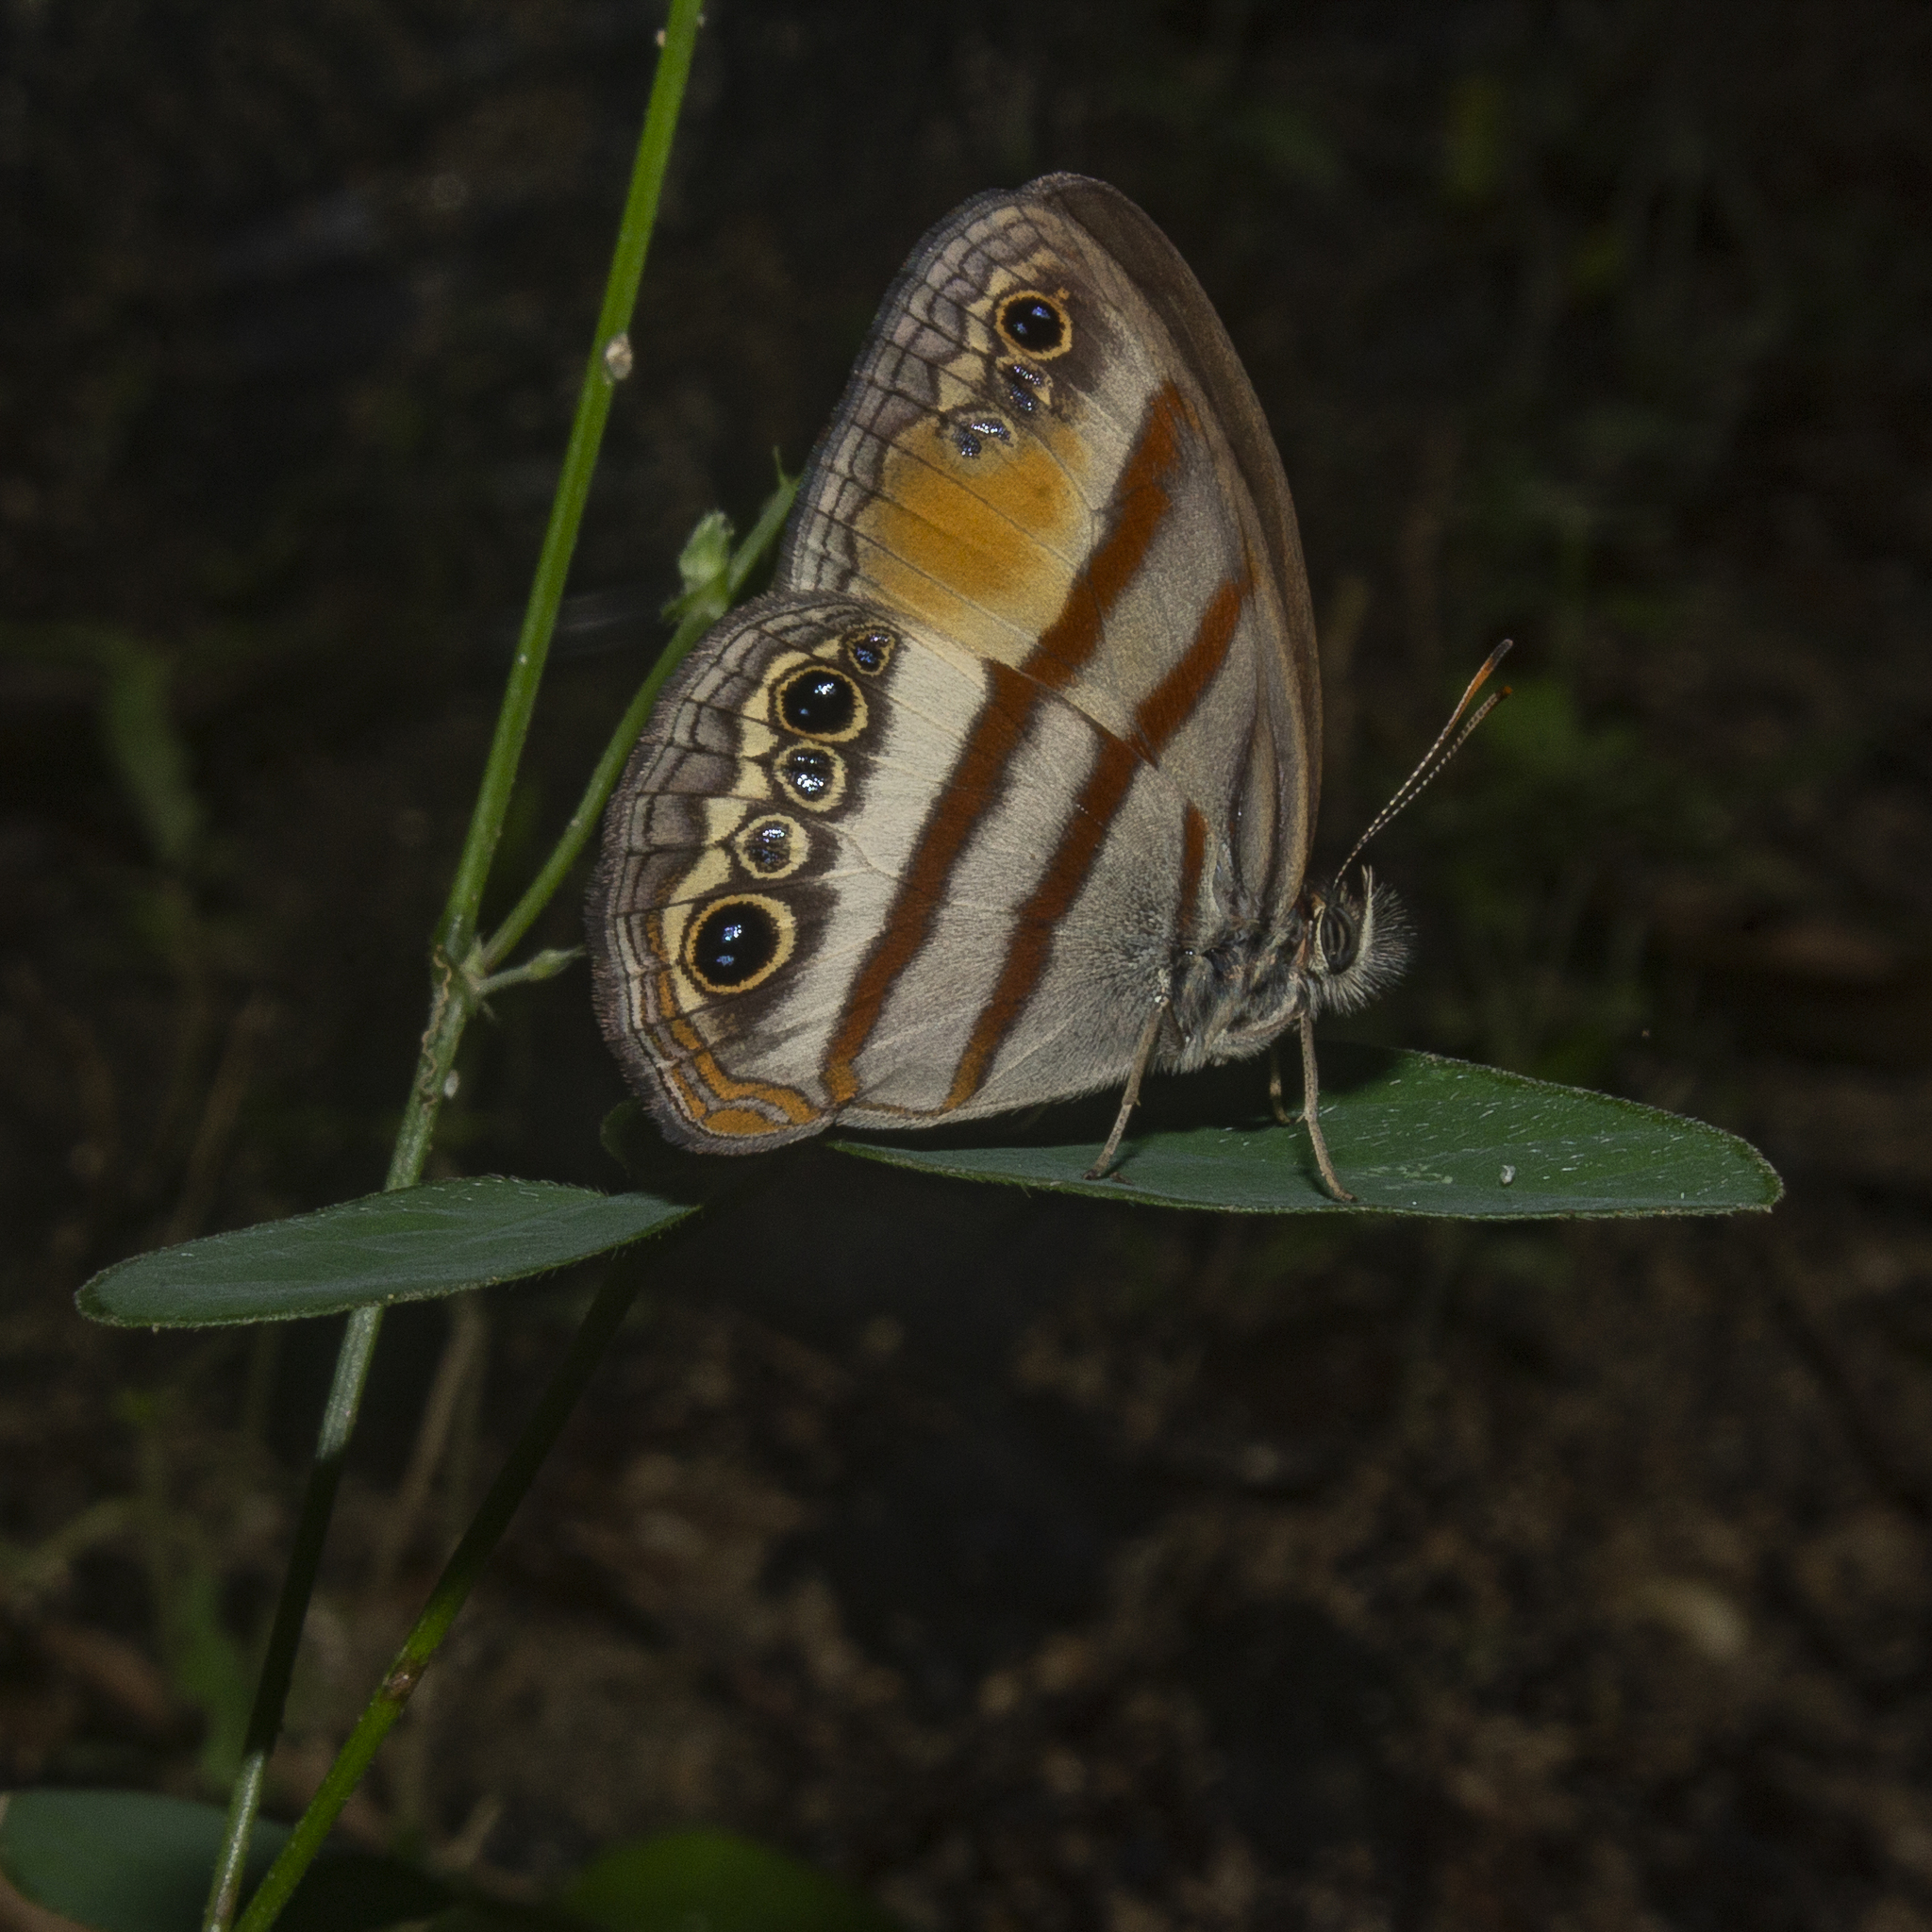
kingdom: Animalia
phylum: Arthropoda
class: Insecta
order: Lepidoptera
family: Nymphalidae
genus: Paryphthimoides
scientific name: Paryphthimoides
